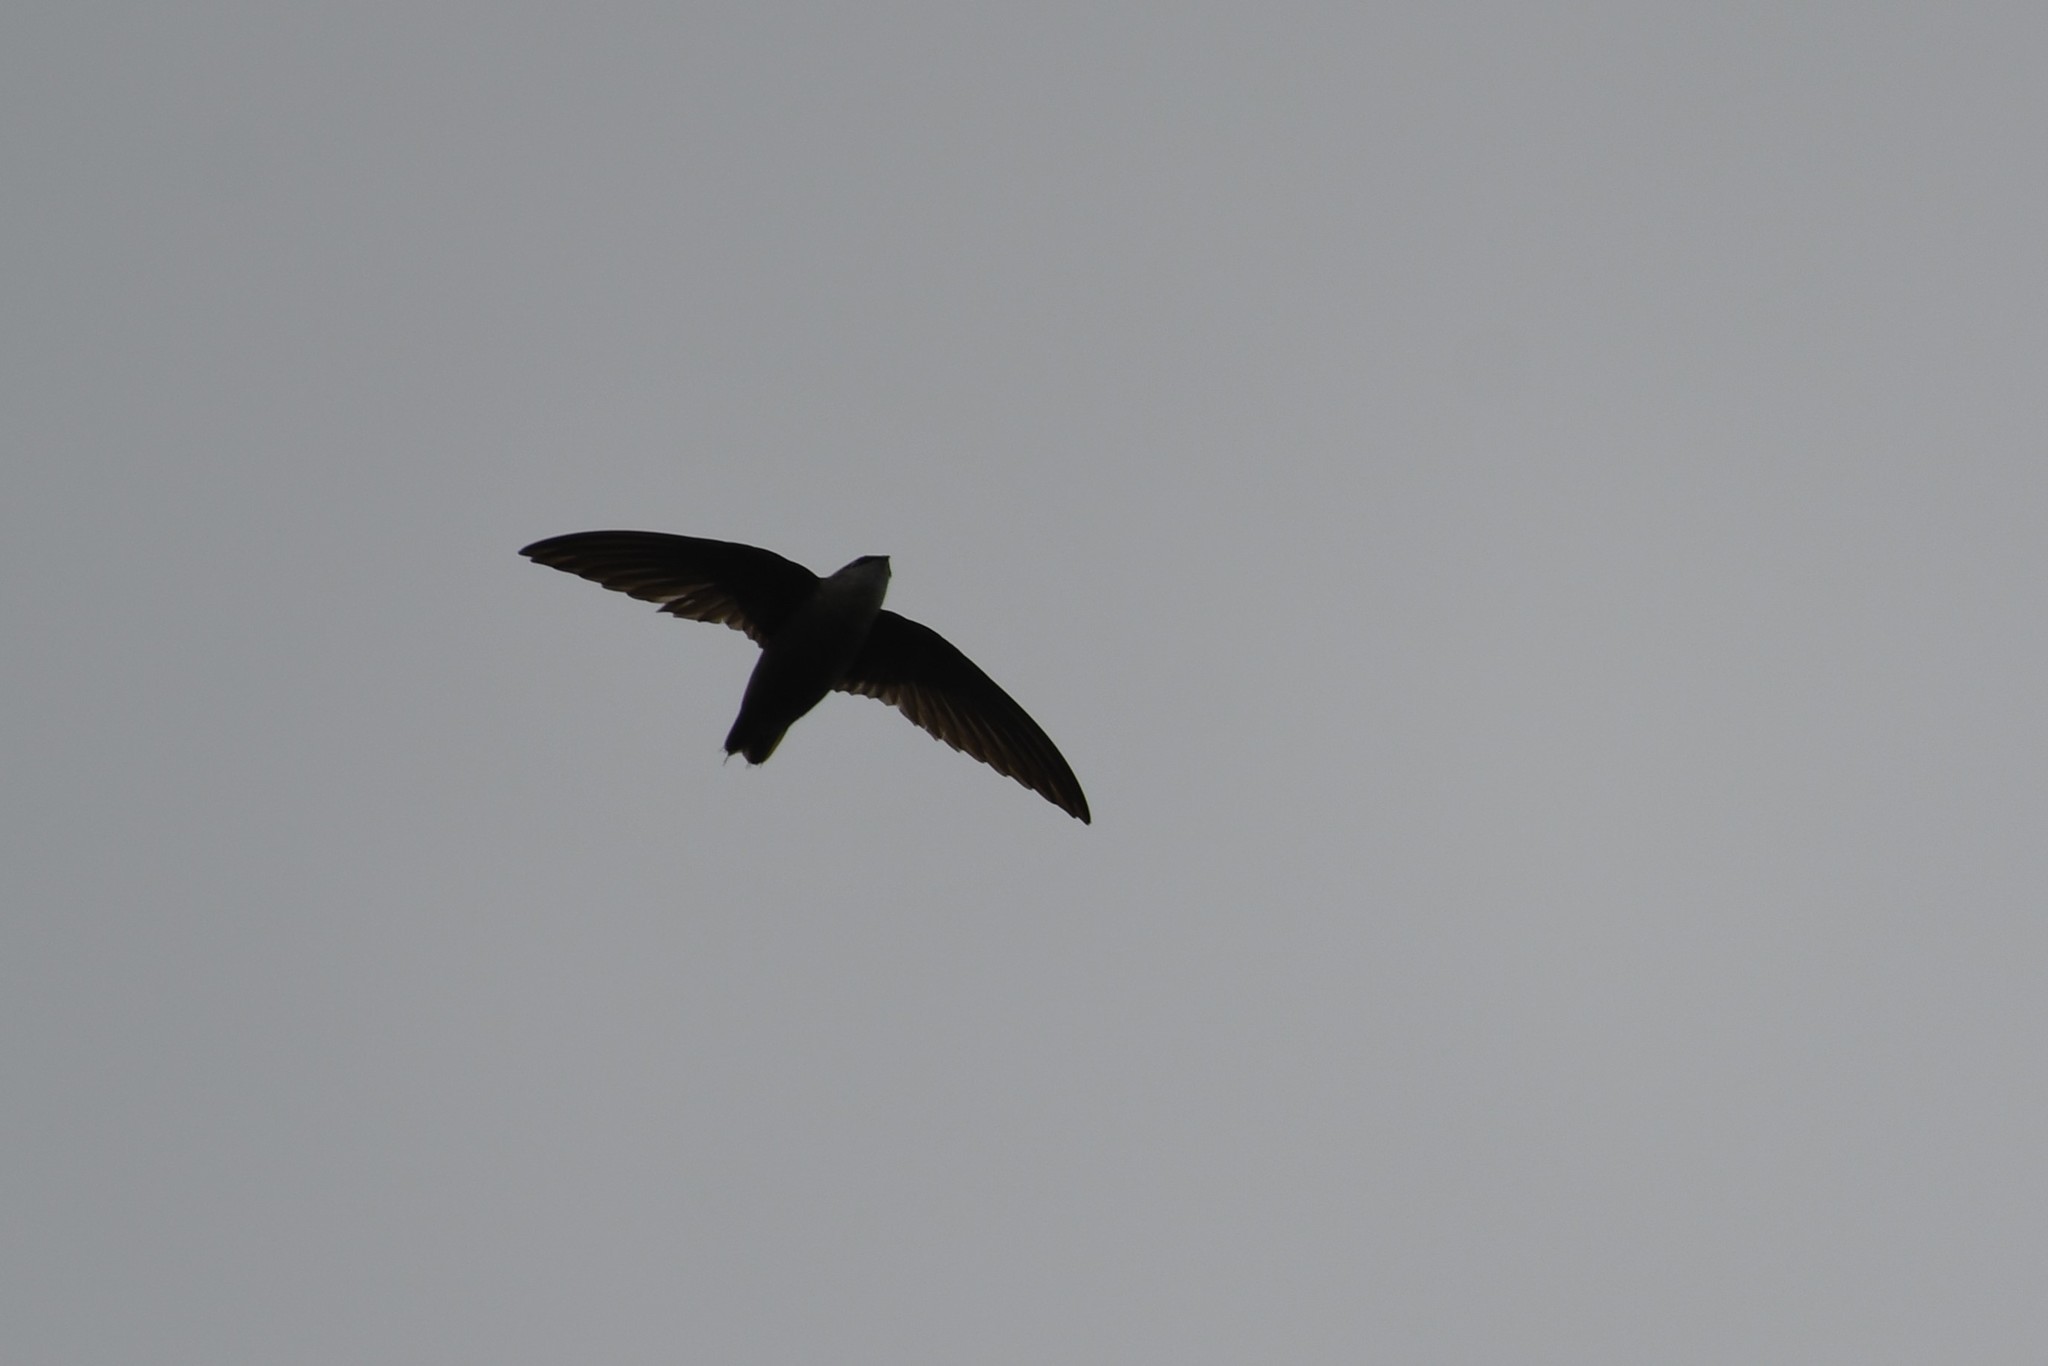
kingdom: Animalia
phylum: Chordata
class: Aves
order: Apodiformes
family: Apodidae
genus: Chaetura
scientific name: Chaetura pelagica
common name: Chimney swift
